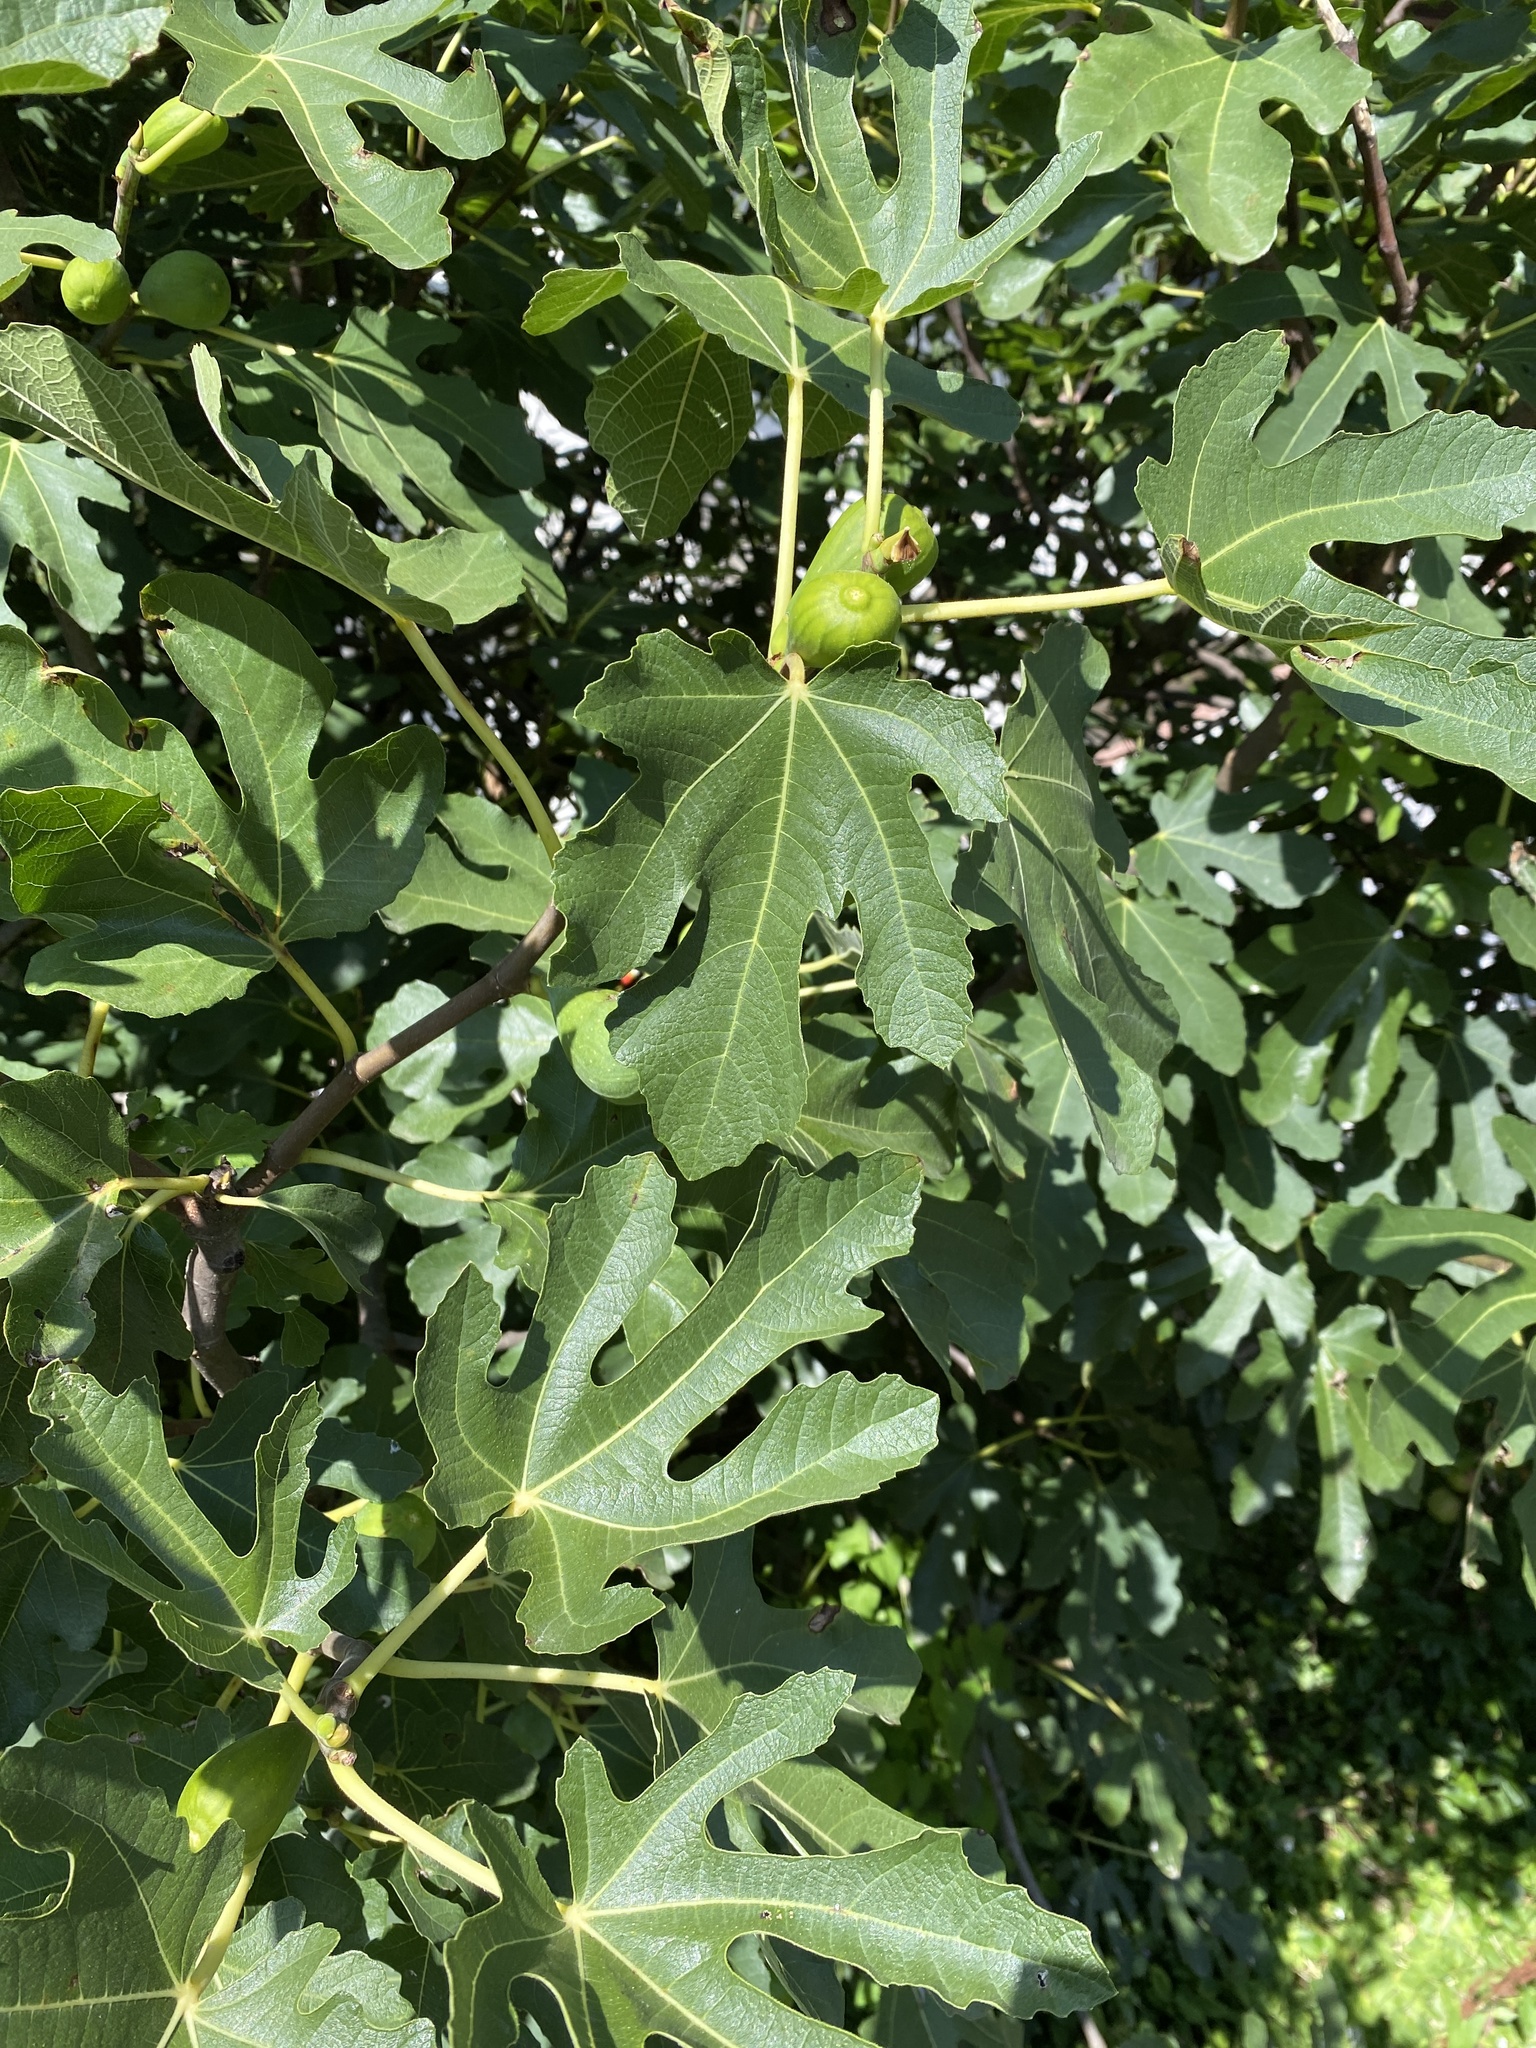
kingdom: Plantae
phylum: Tracheophyta
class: Magnoliopsida
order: Rosales
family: Moraceae
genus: Ficus
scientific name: Ficus carica
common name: Fig
